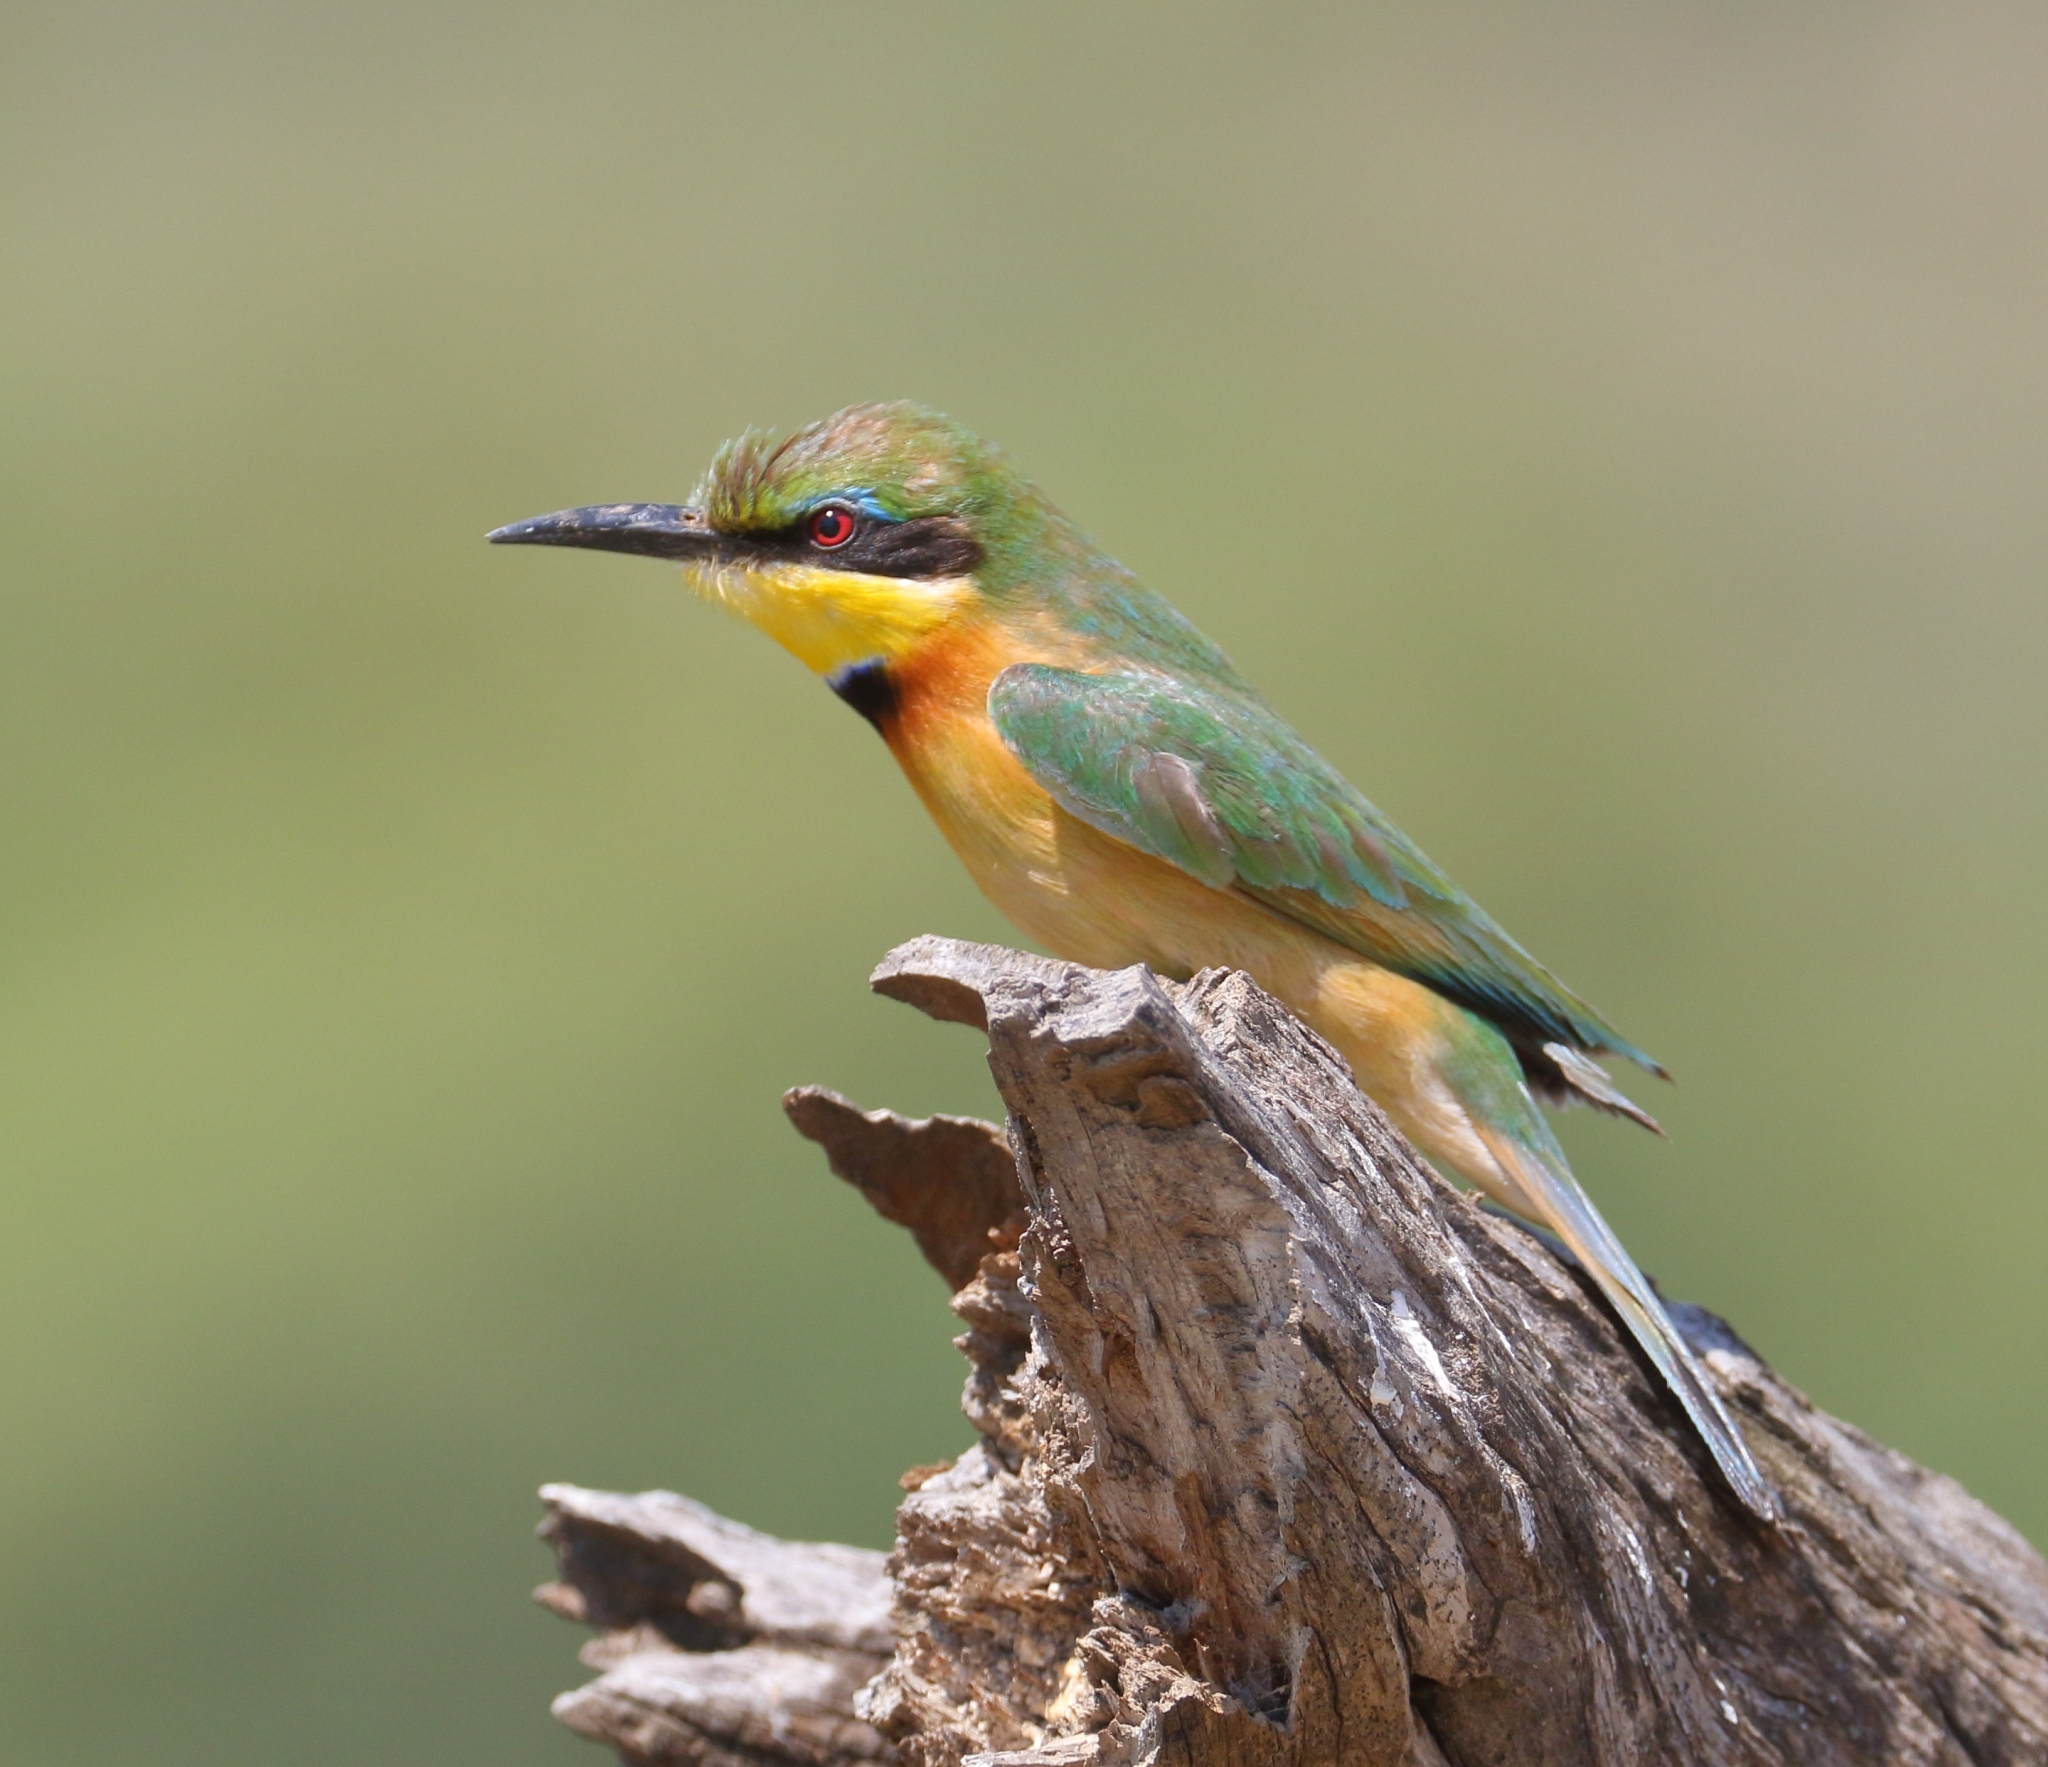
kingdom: Animalia
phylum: Chordata
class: Aves
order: Coraciiformes
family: Meropidae
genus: Merops
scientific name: Merops pusillus
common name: Little bee-eater
